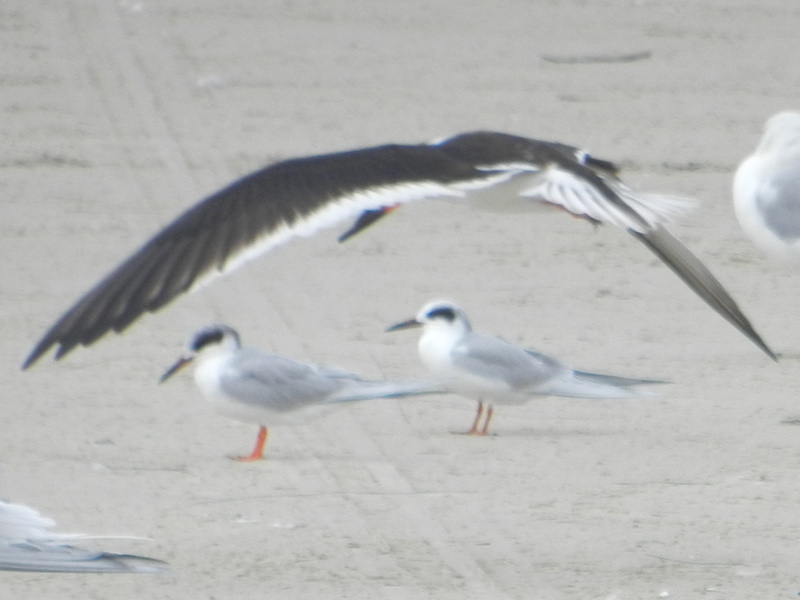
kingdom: Animalia
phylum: Chordata
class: Aves
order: Charadriiformes
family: Laridae
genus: Rynchops
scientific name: Rynchops niger
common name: Black skimmer
